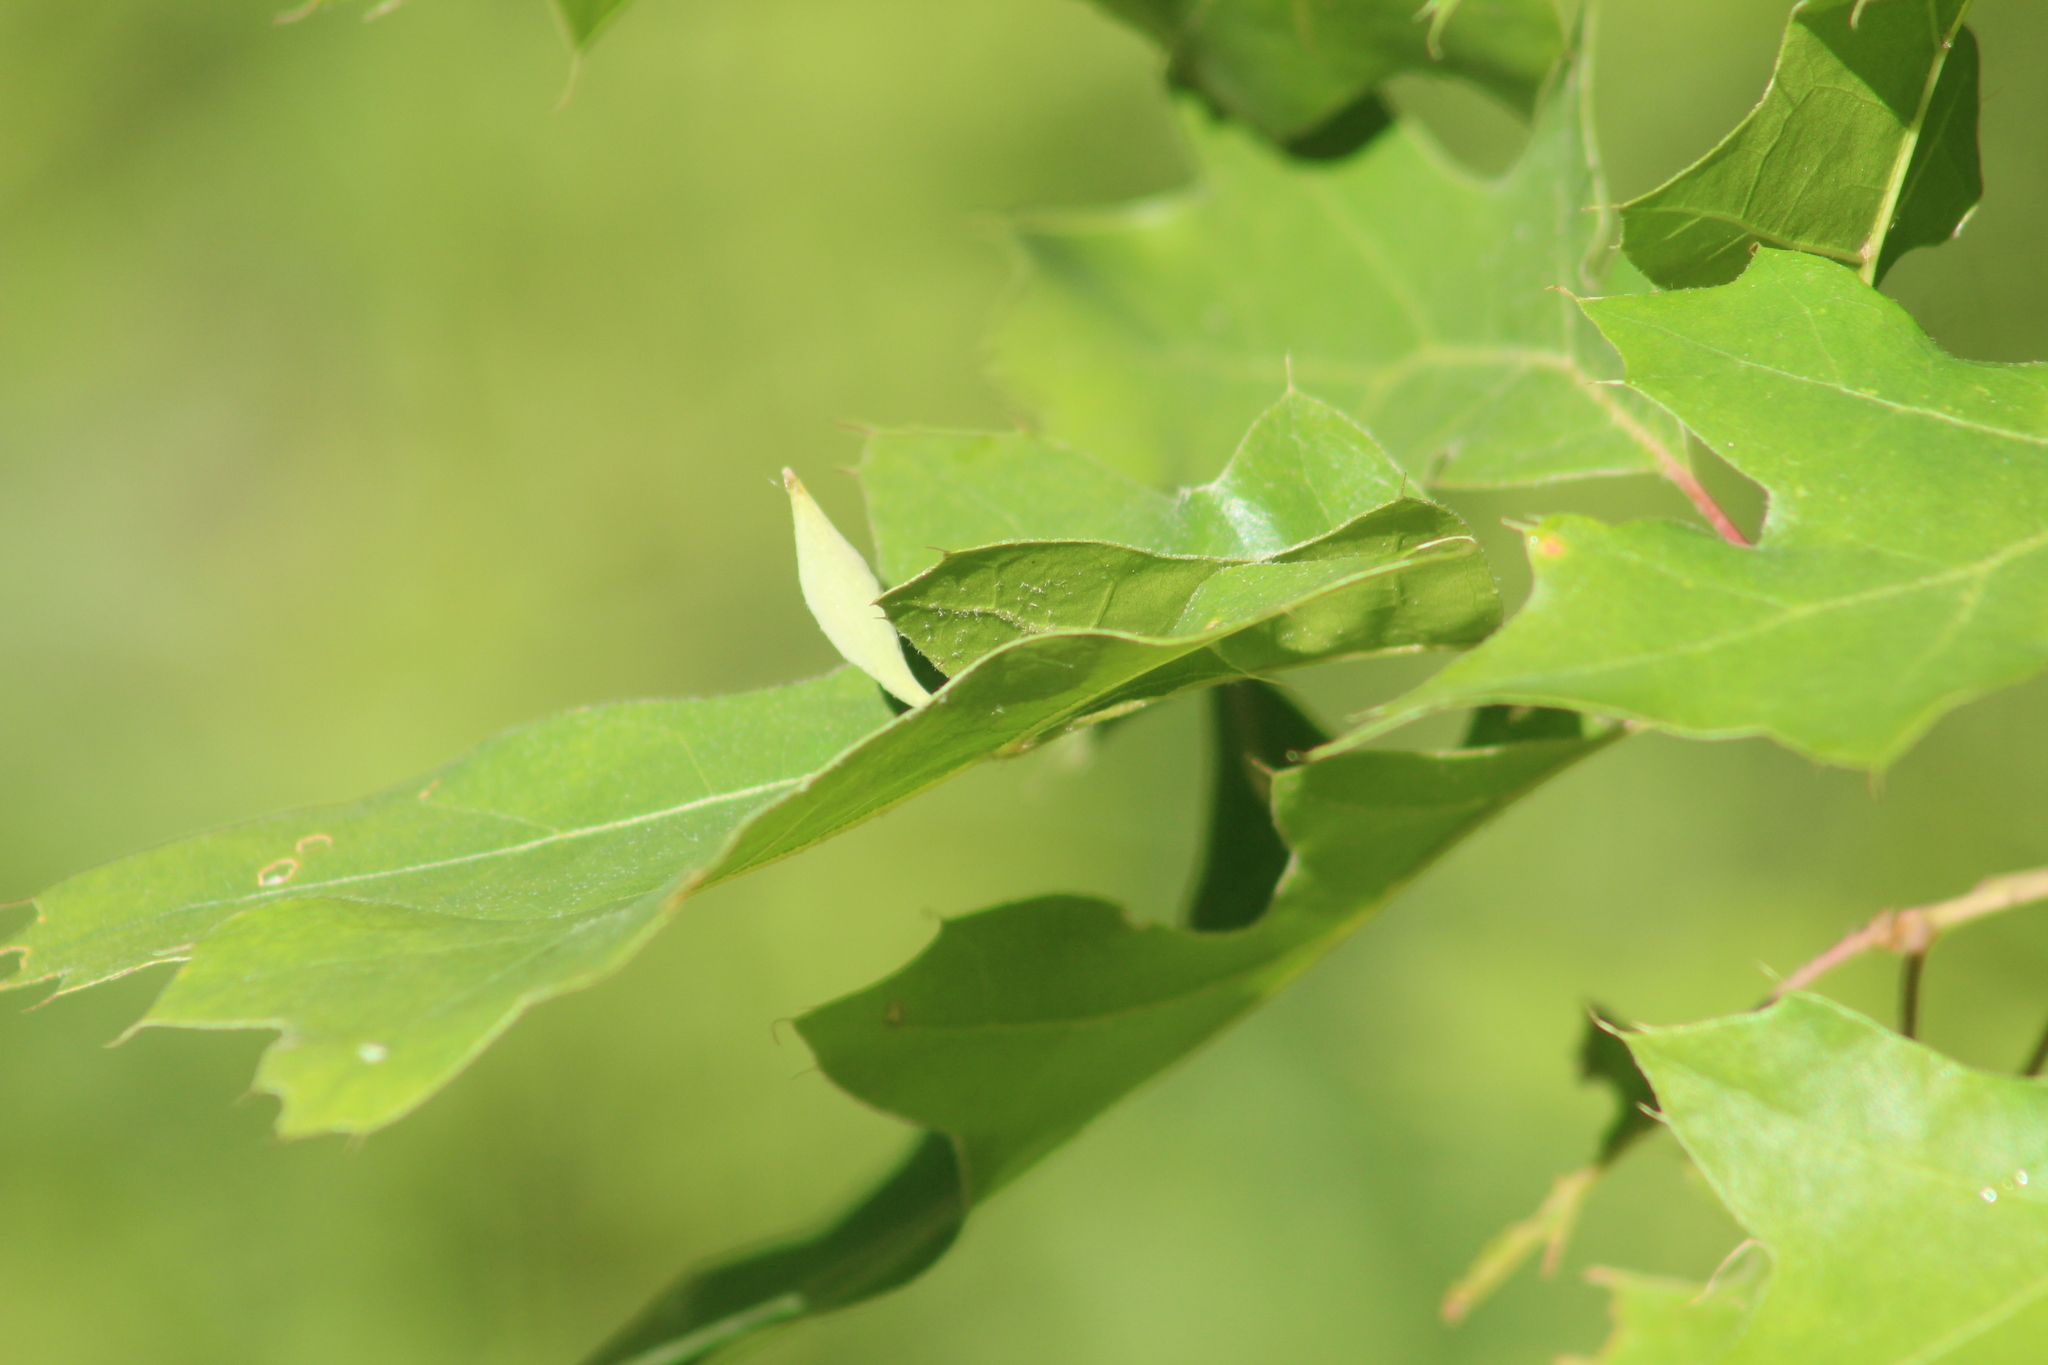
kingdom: Animalia
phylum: Arthropoda
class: Insecta
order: Hymenoptera
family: Cynipidae
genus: Amphibolips
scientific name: Amphibolips
